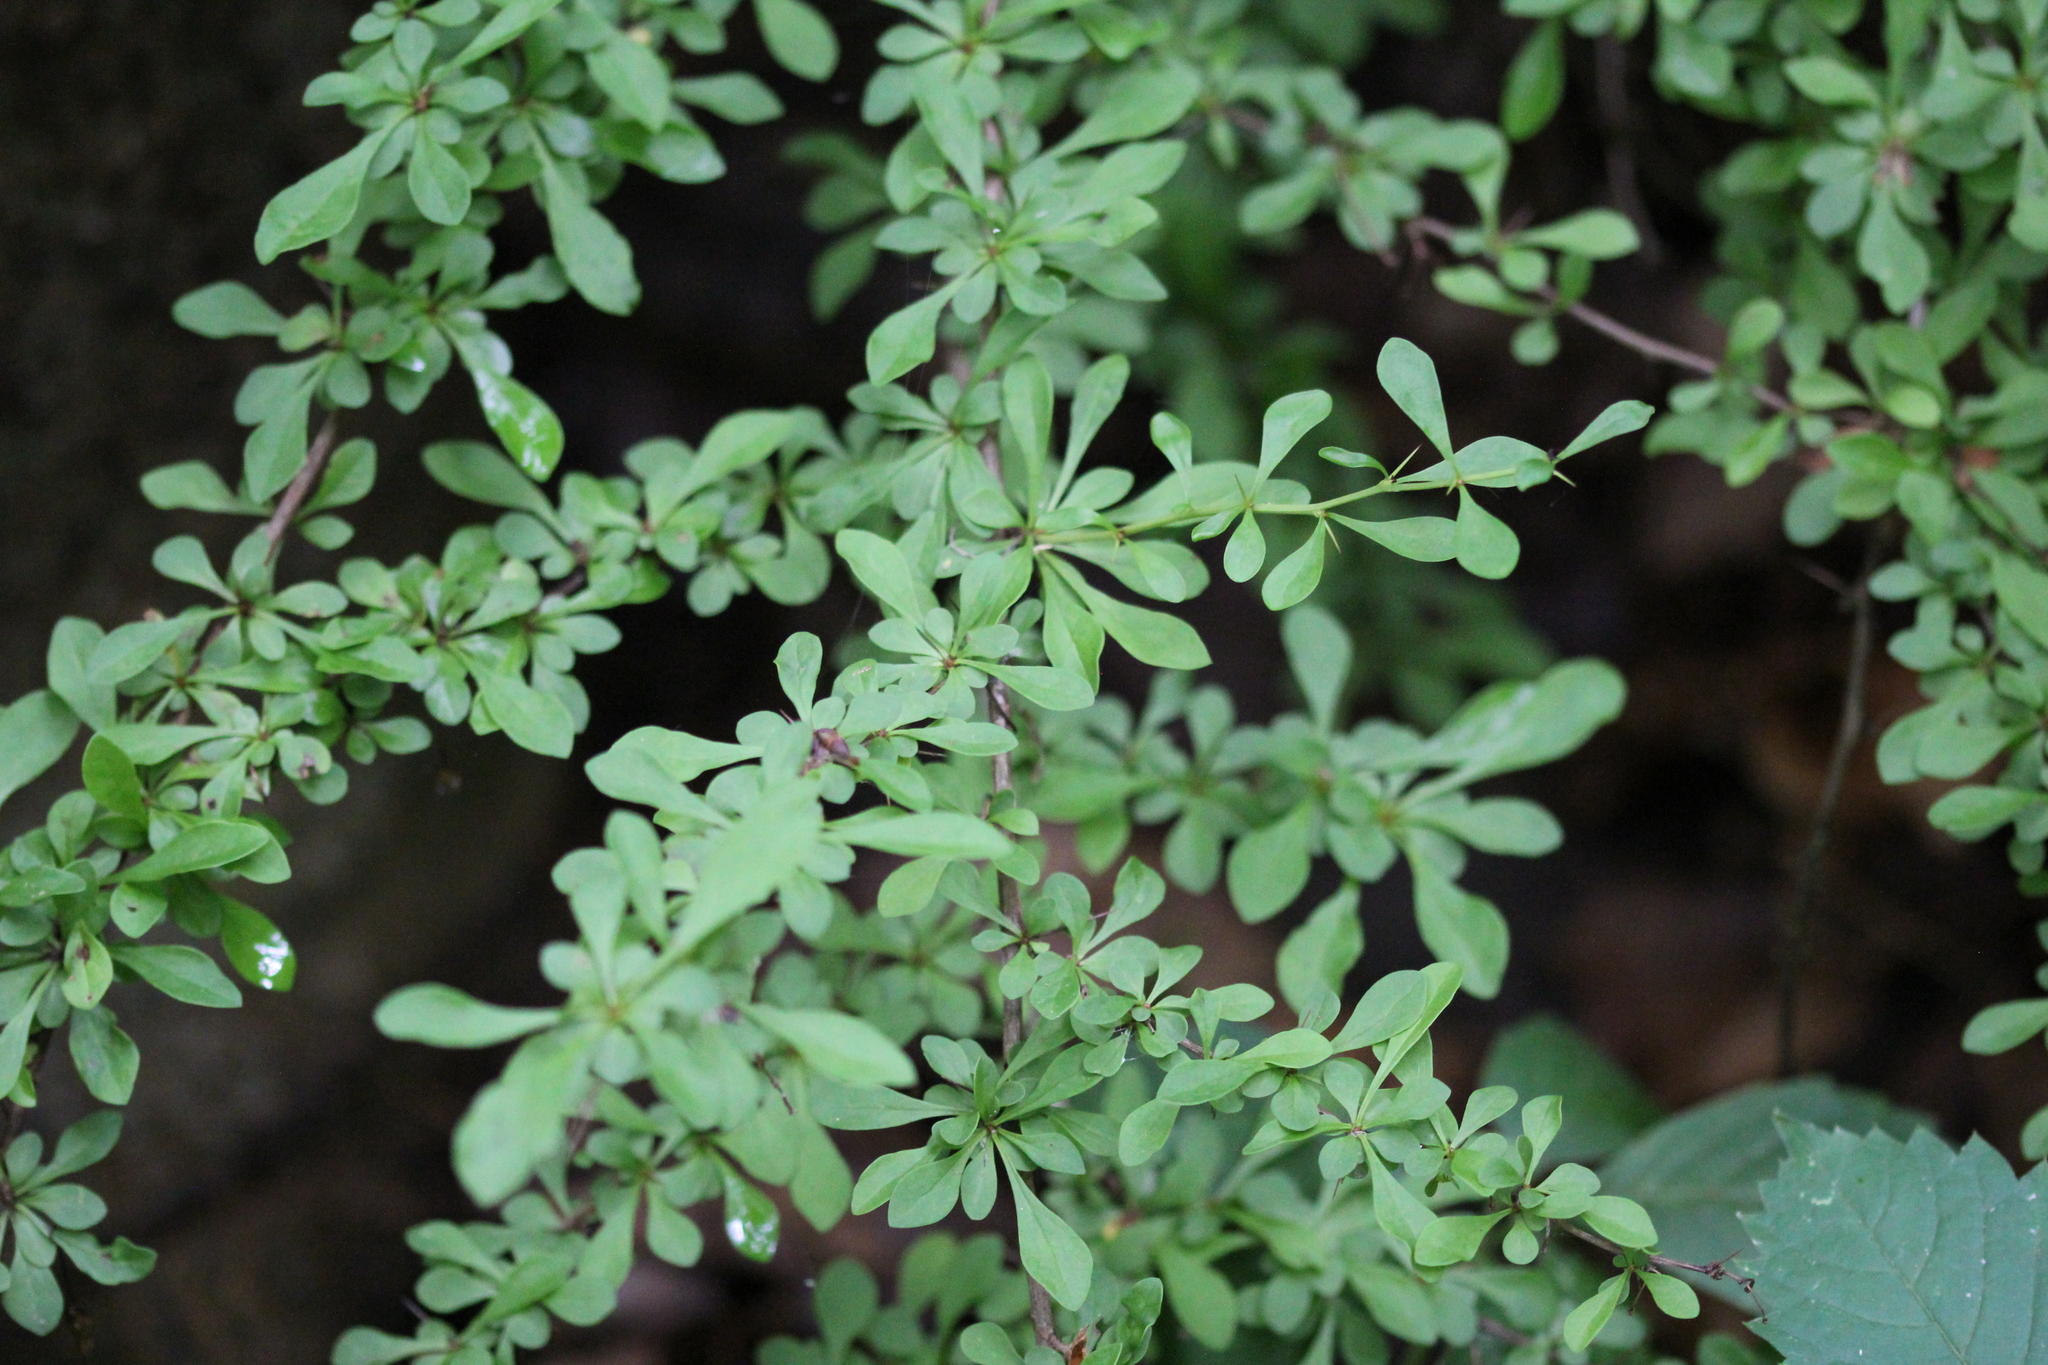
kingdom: Plantae
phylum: Tracheophyta
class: Magnoliopsida
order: Ranunculales
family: Berberidaceae
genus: Berberis
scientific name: Berberis thunbergii
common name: Japanese barberry
